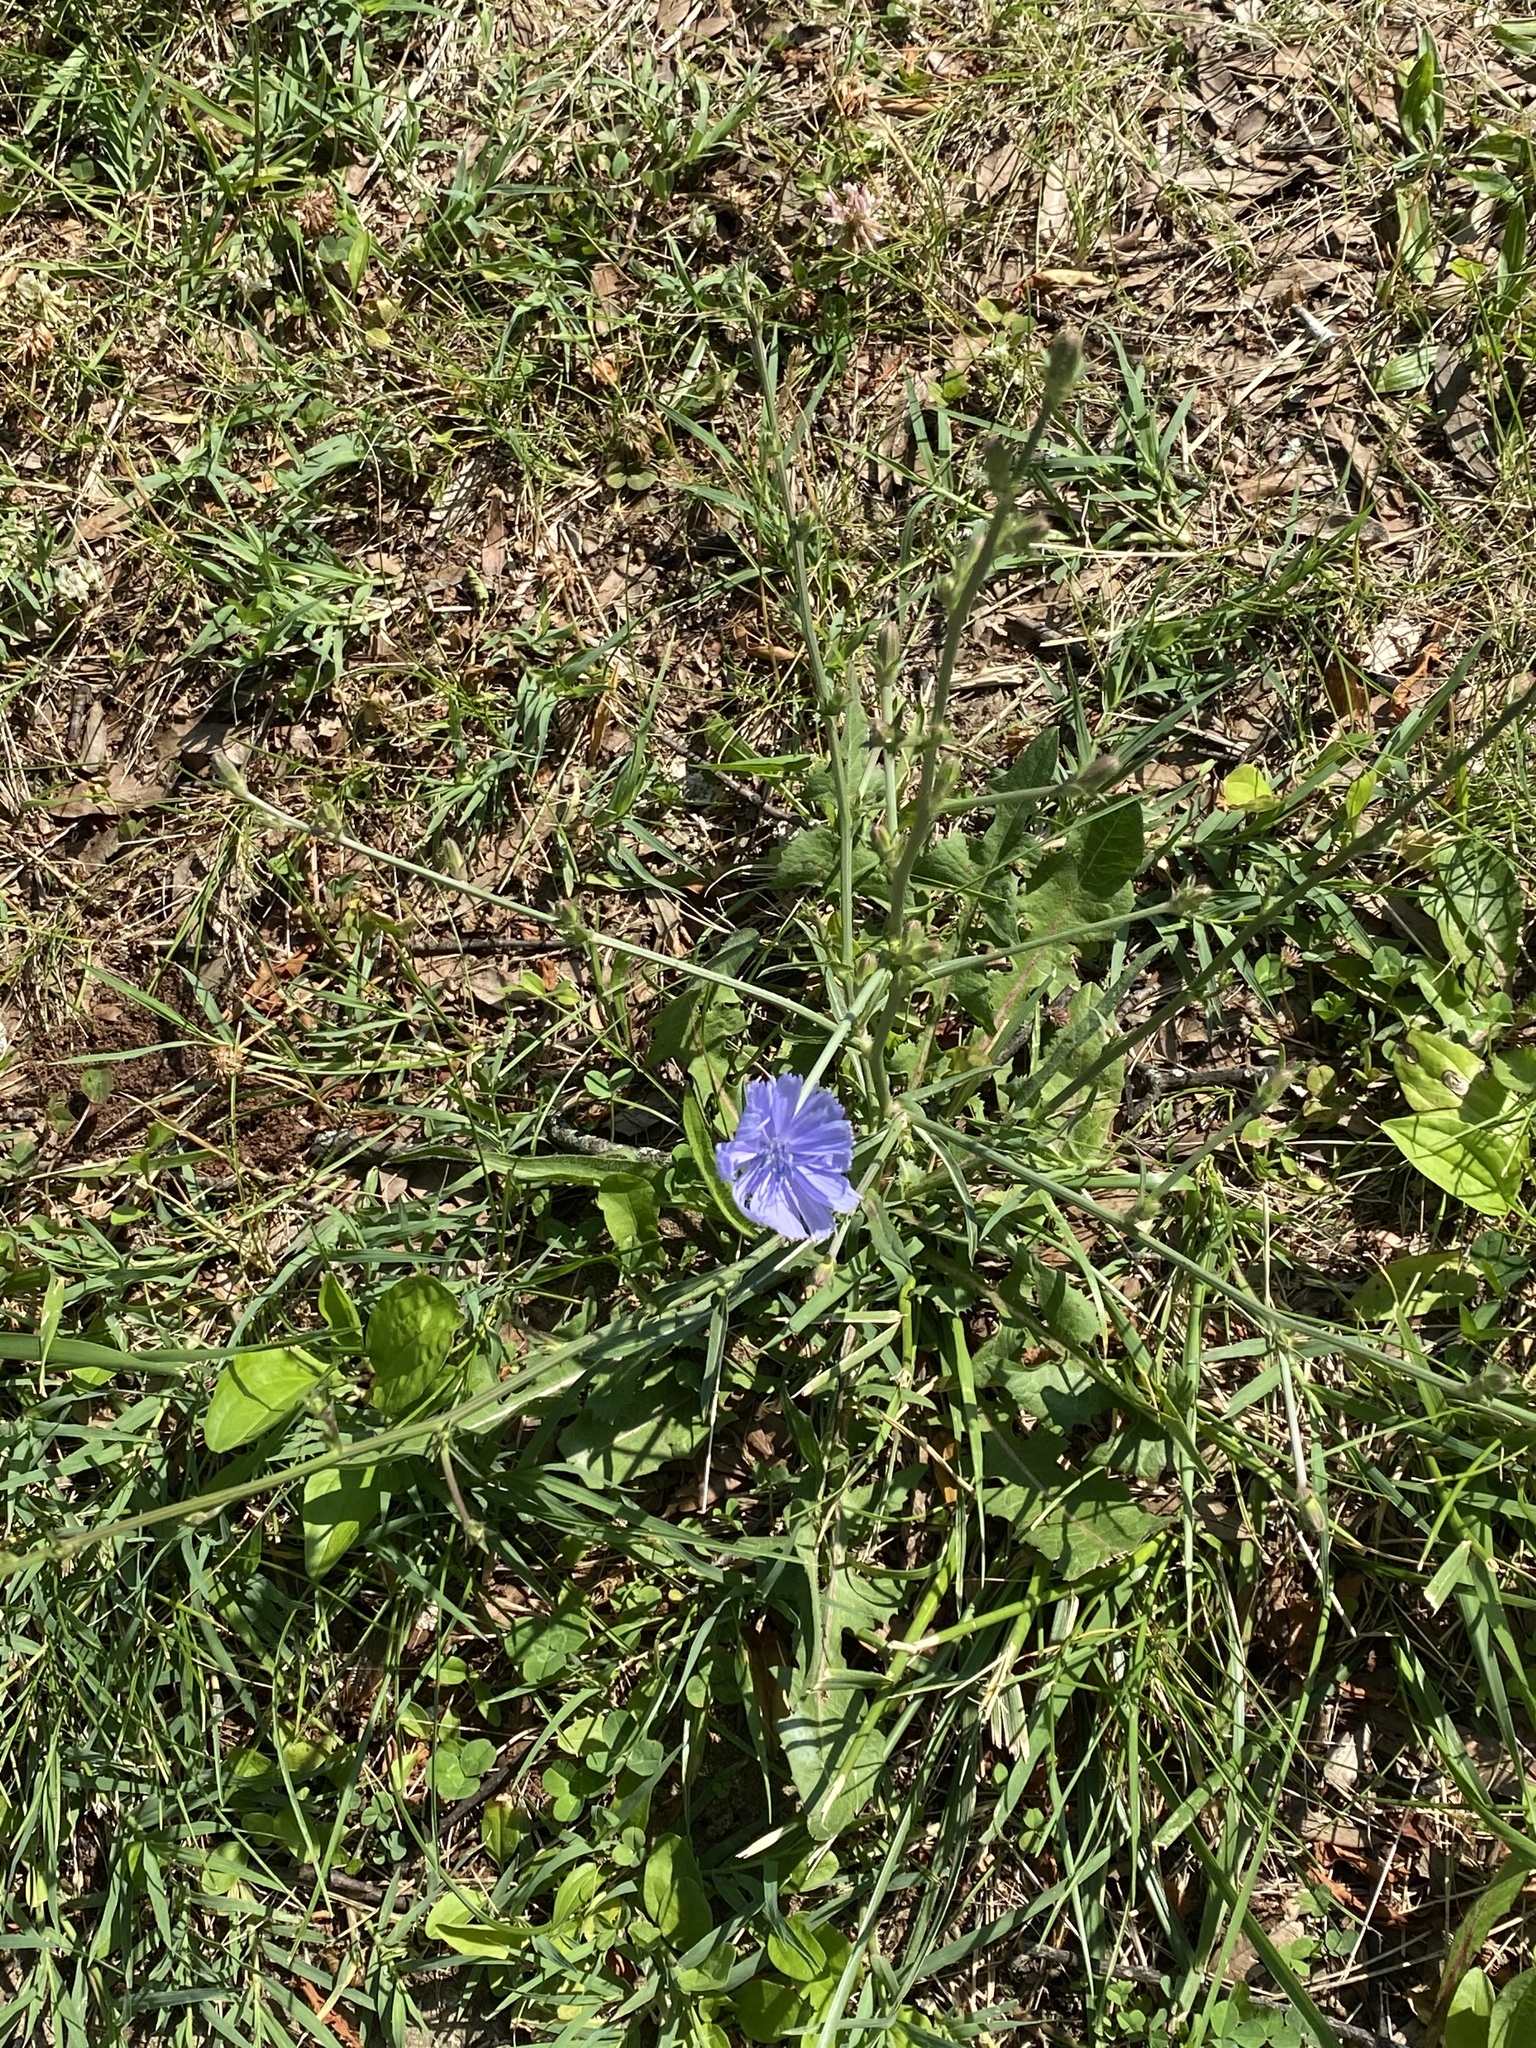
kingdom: Plantae
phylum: Tracheophyta
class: Magnoliopsida
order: Asterales
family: Asteraceae
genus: Cichorium
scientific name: Cichorium intybus
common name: Chicory
